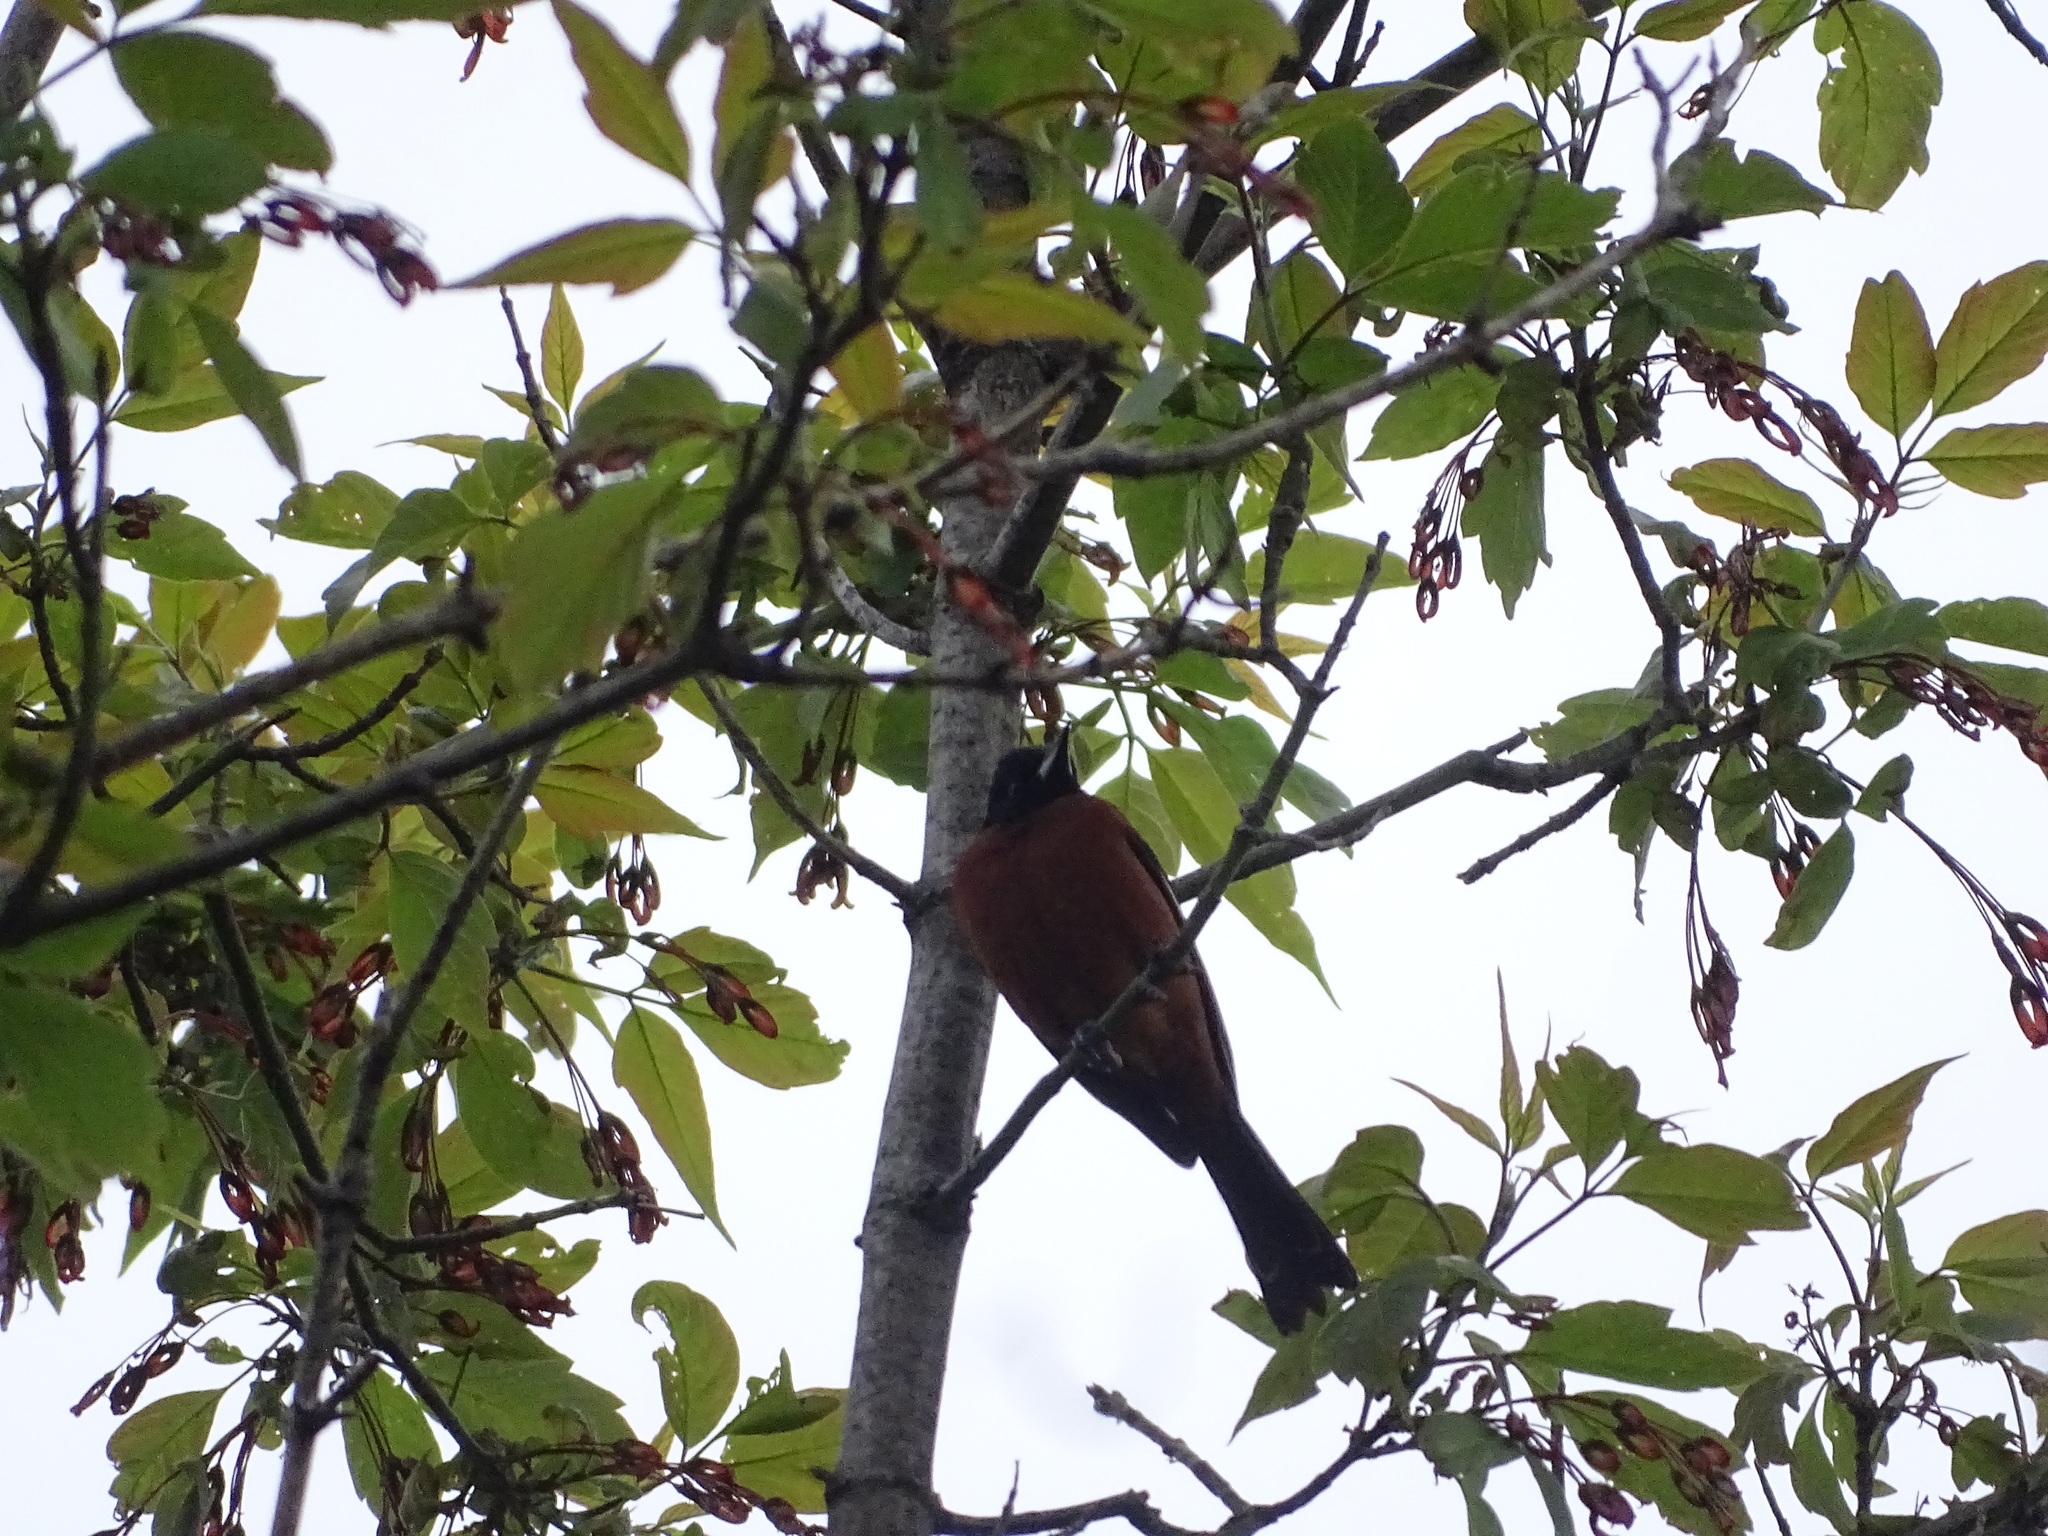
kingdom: Animalia
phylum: Chordata
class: Aves
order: Passeriformes
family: Icteridae
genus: Icterus
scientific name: Icterus spurius
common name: Orchard oriole
